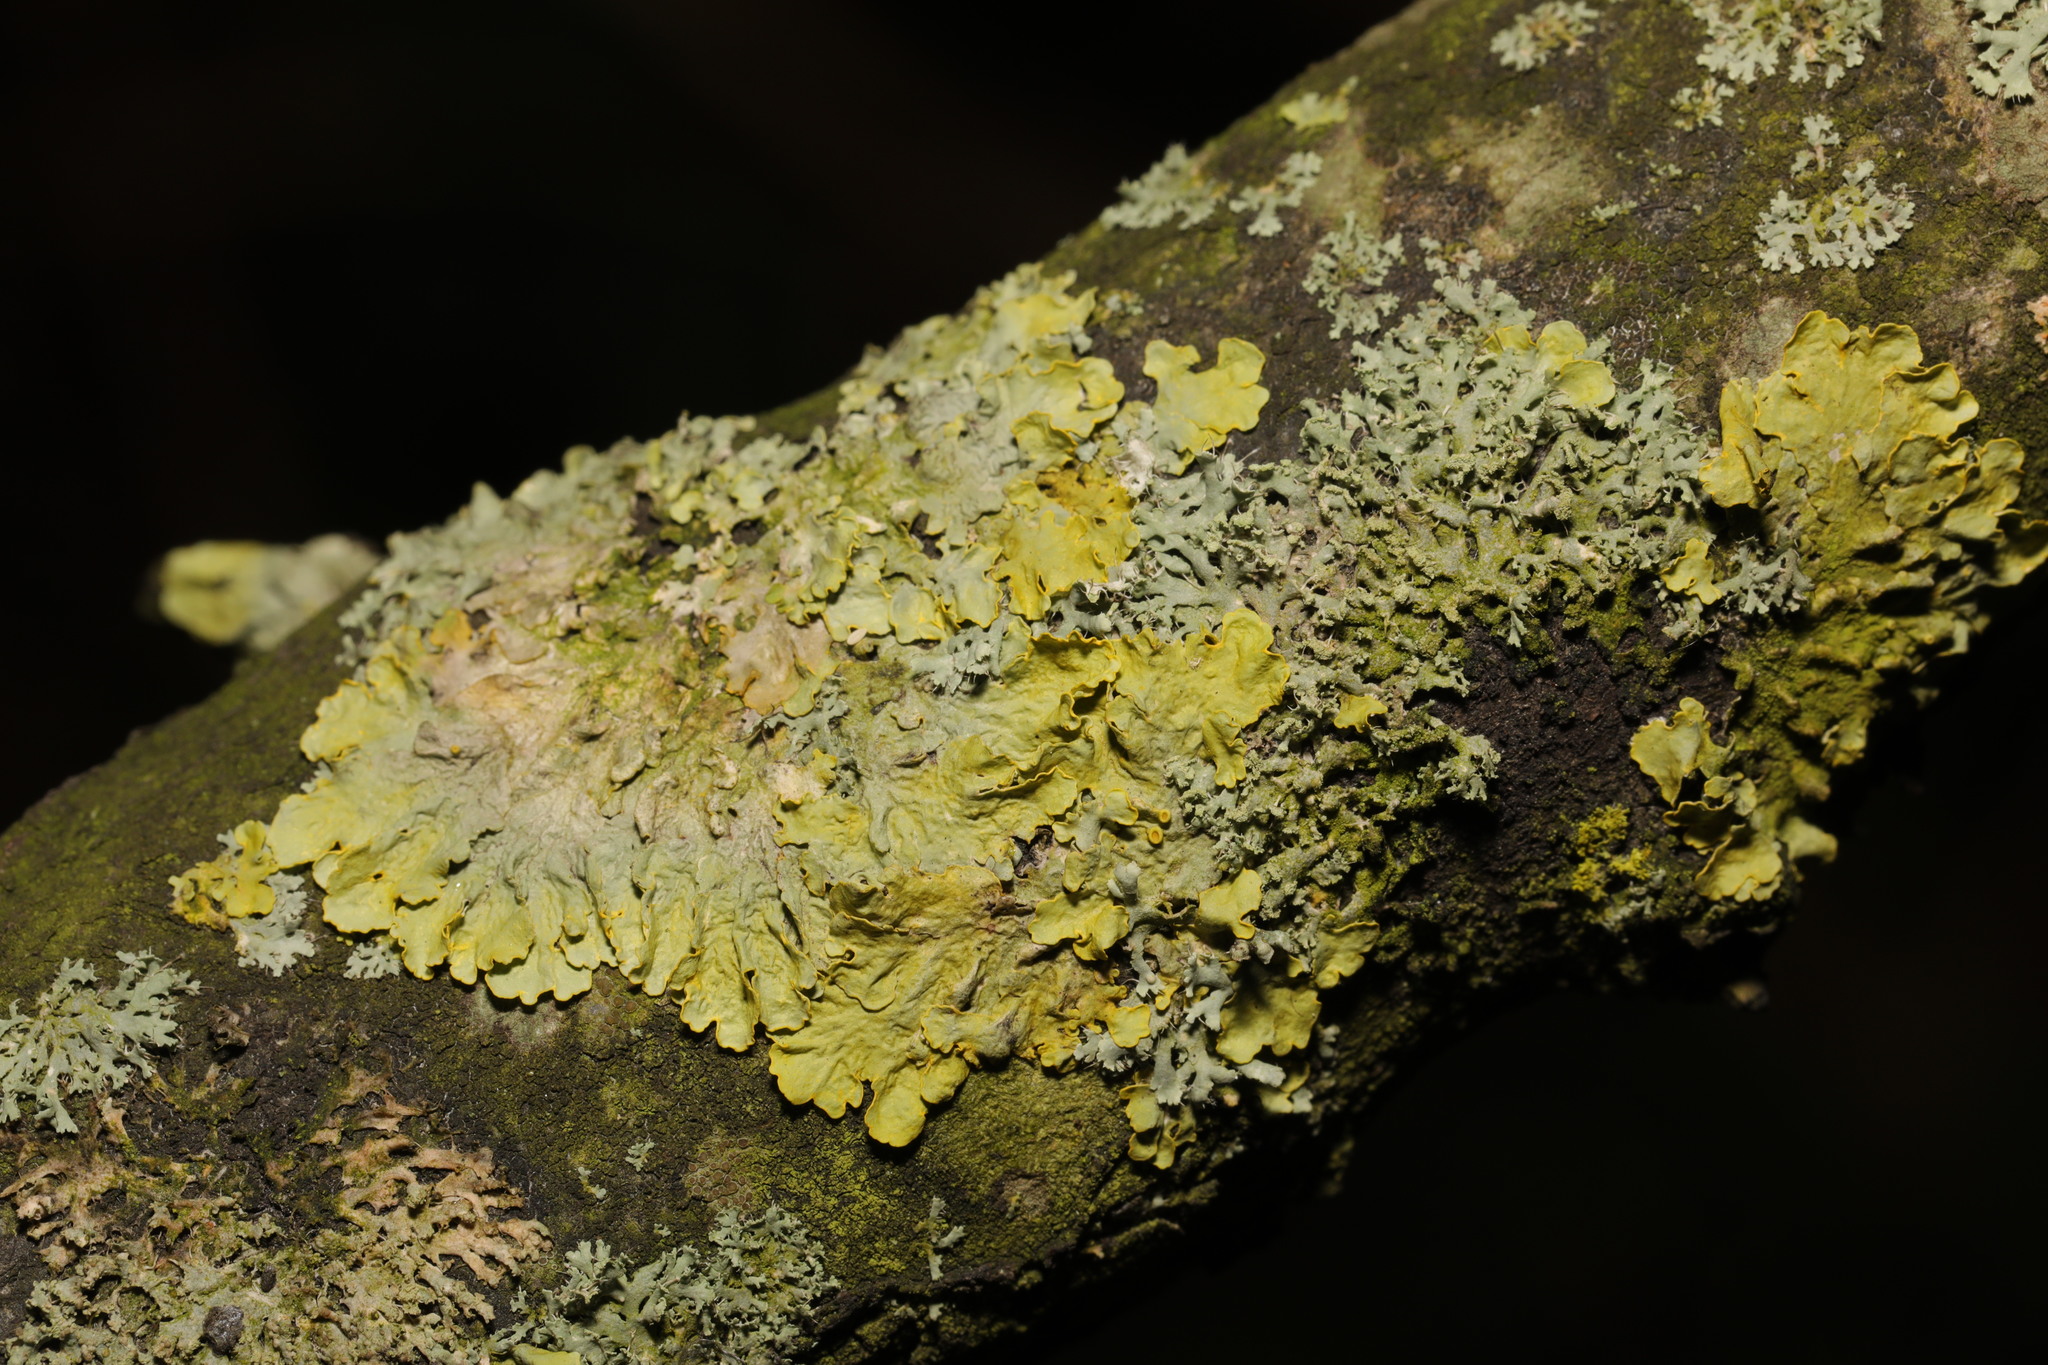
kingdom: Fungi
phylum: Ascomycota
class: Lecanoromycetes
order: Teloschistales
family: Teloschistaceae
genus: Xanthoria
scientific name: Xanthoria parietina
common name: Common orange lichen
